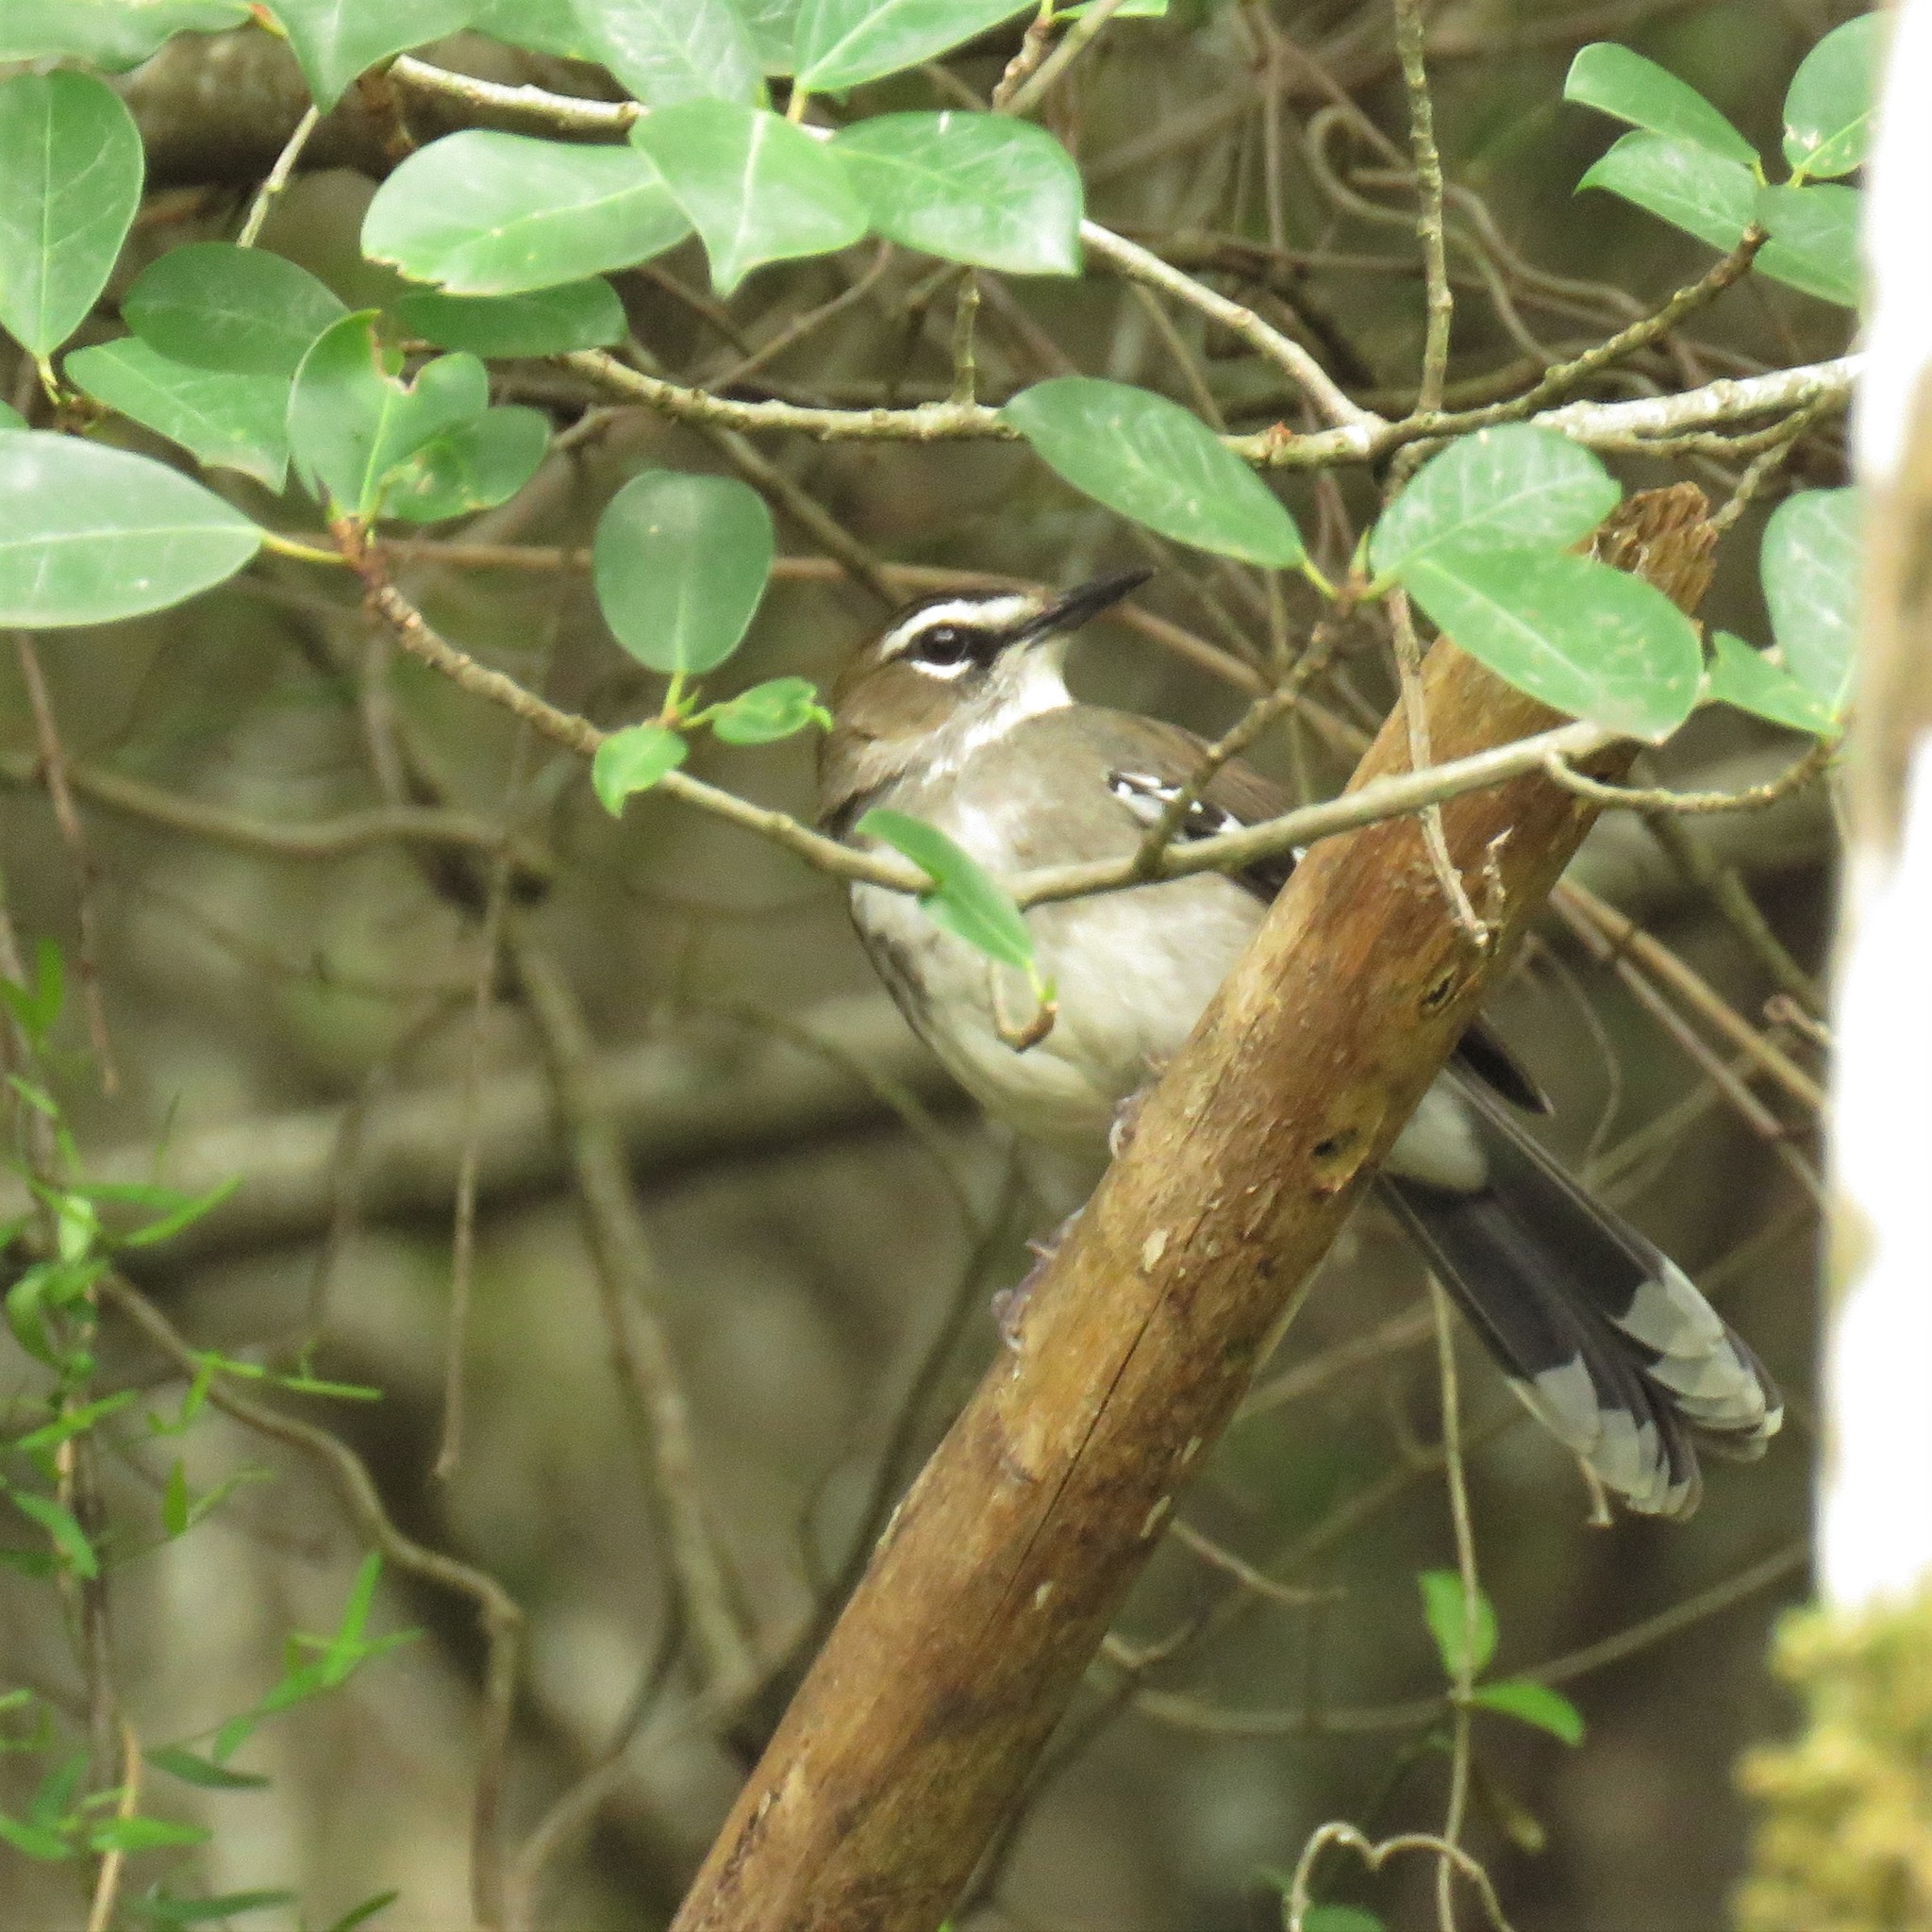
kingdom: Animalia
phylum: Chordata
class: Aves
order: Passeriformes
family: Muscicapidae
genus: Erythropygia
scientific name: Erythropygia signata
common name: Brown scrub robin
